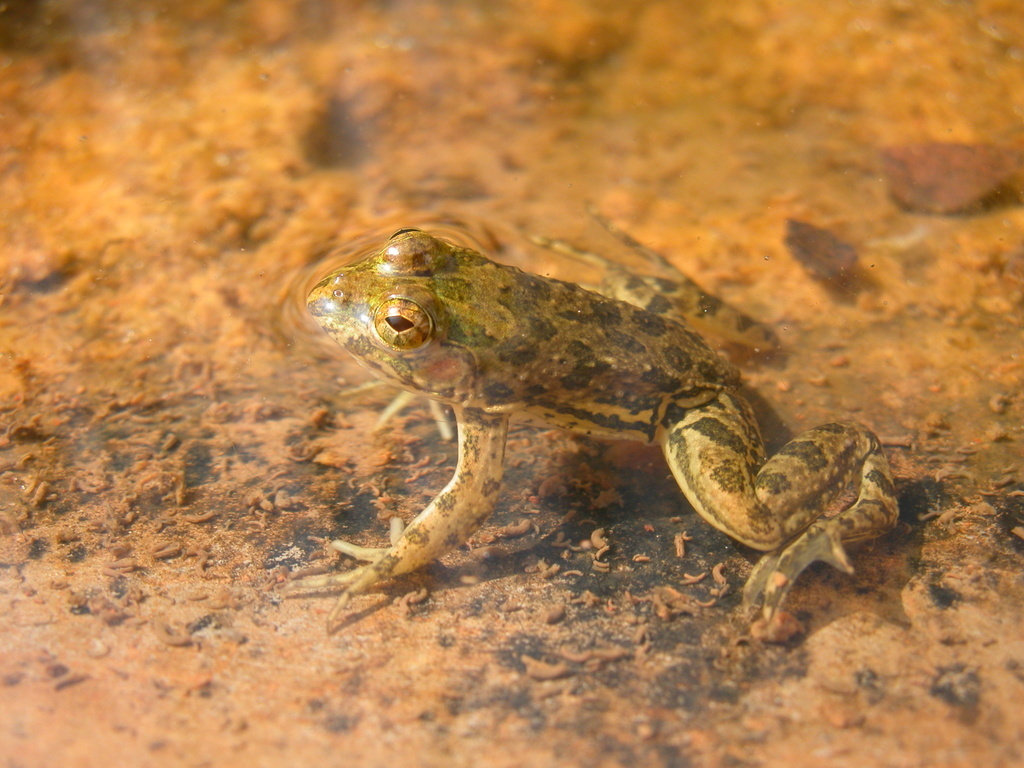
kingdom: Animalia
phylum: Chordata
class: Amphibia
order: Anura
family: Dicroglossidae
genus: Euphlyctis
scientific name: Euphlyctis cyanophlyctis
